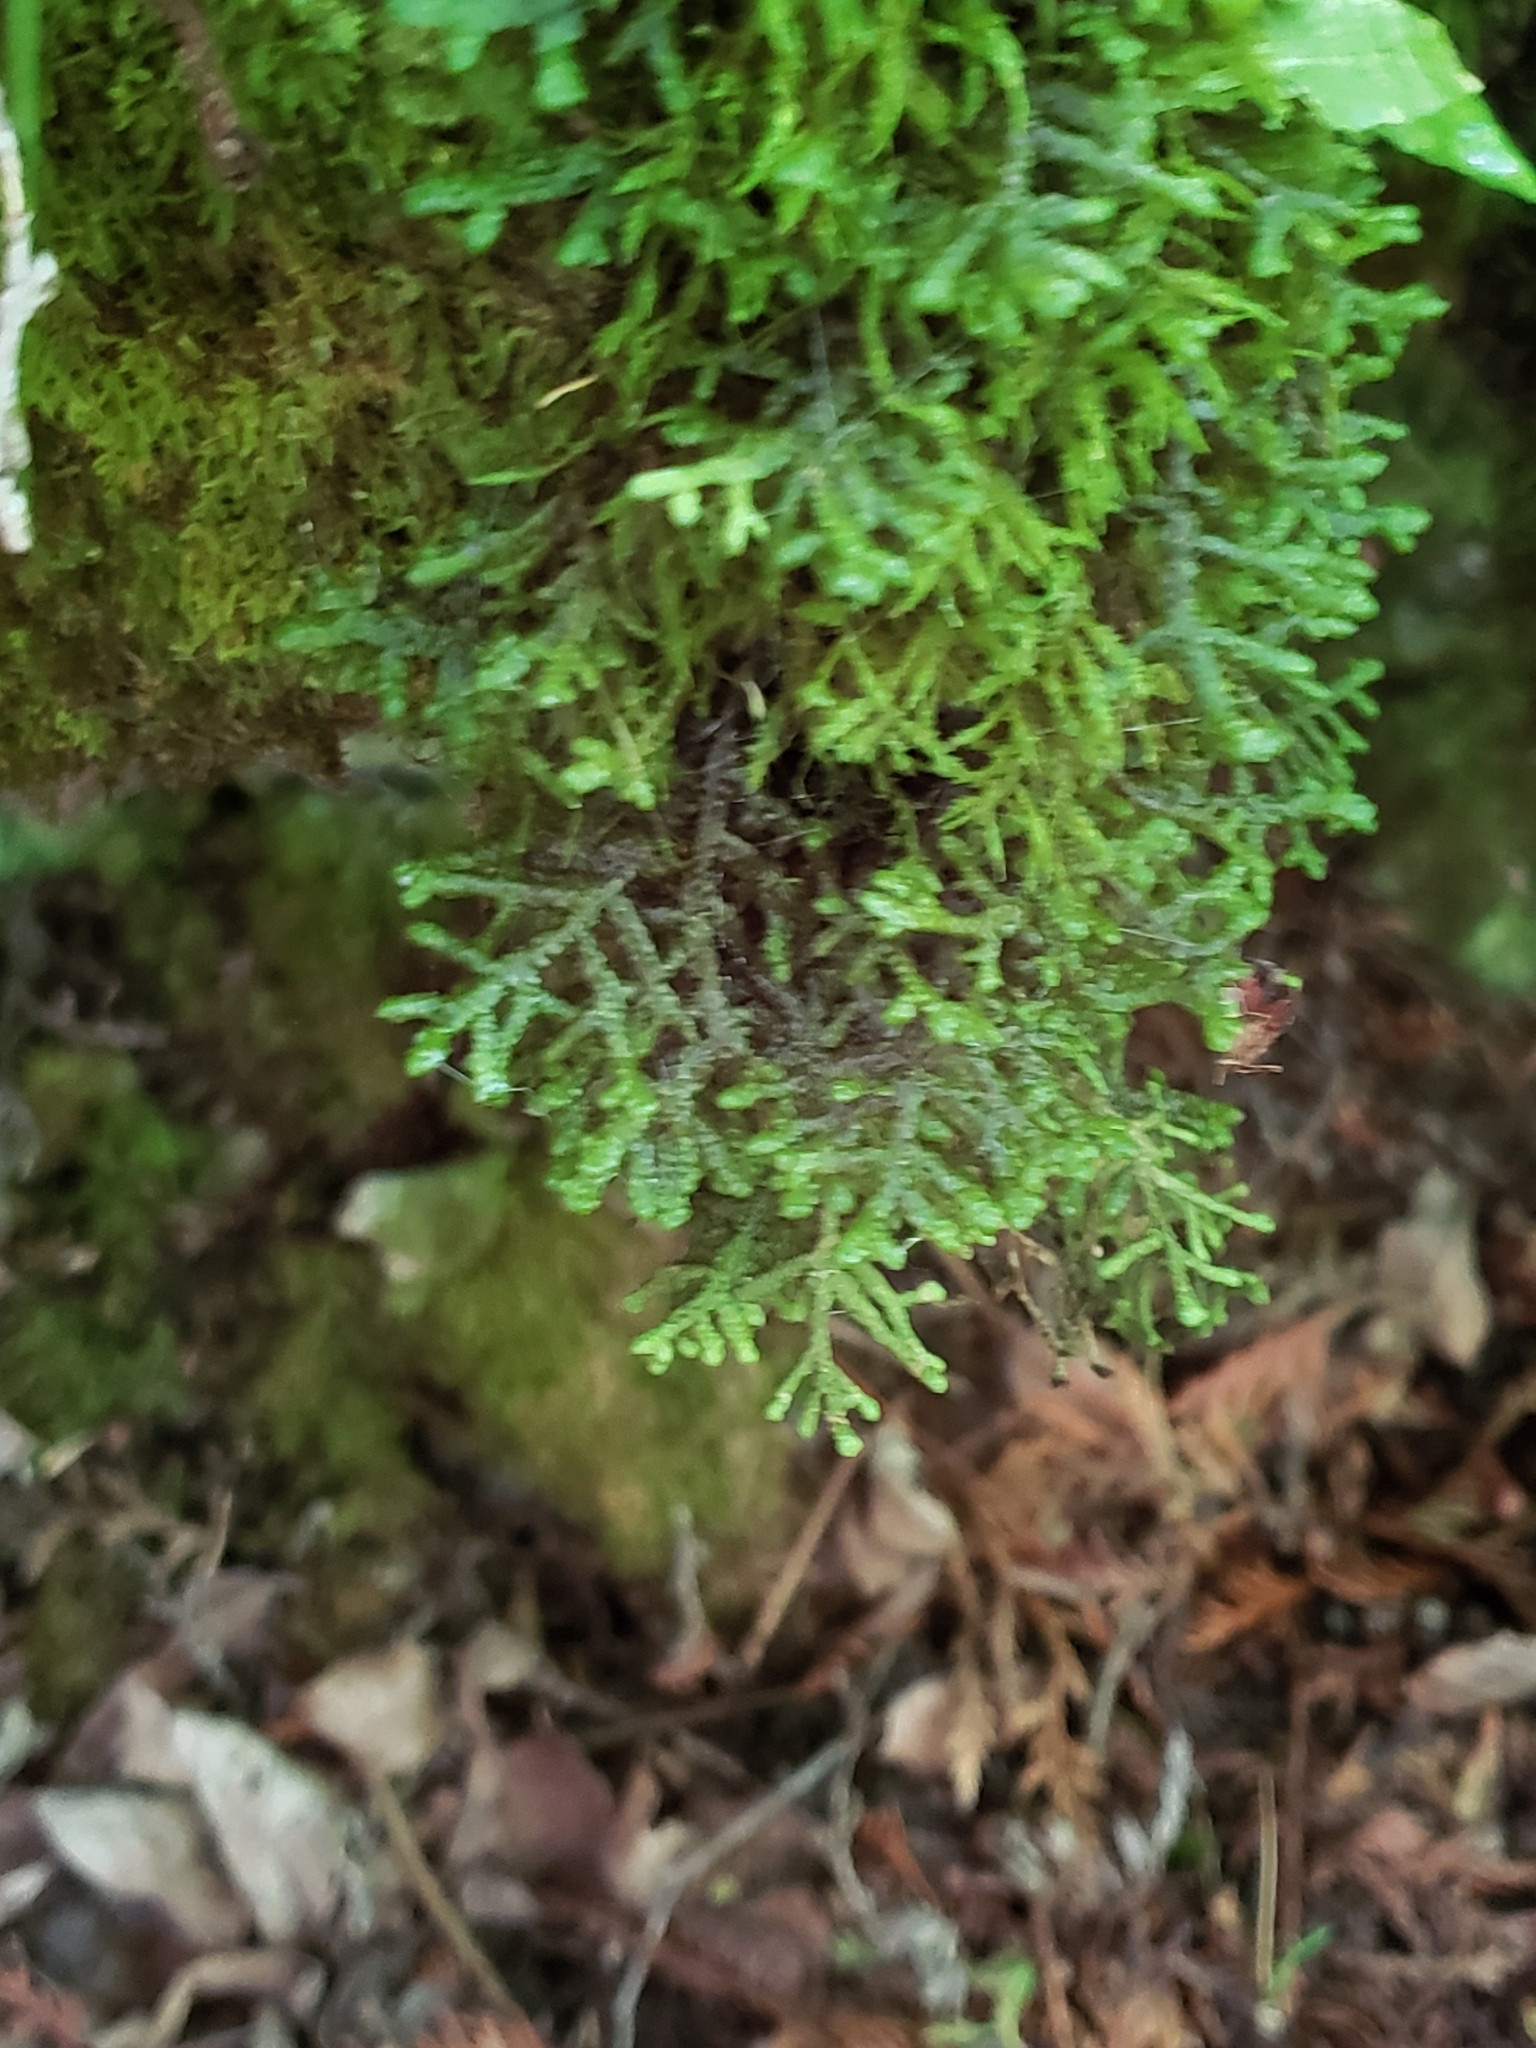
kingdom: Plantae
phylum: Marchantiophyta
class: Jungermanniopsida
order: Porellales
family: Porellaceae
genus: Porella
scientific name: Porella platyphylla
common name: Wall scalewort
